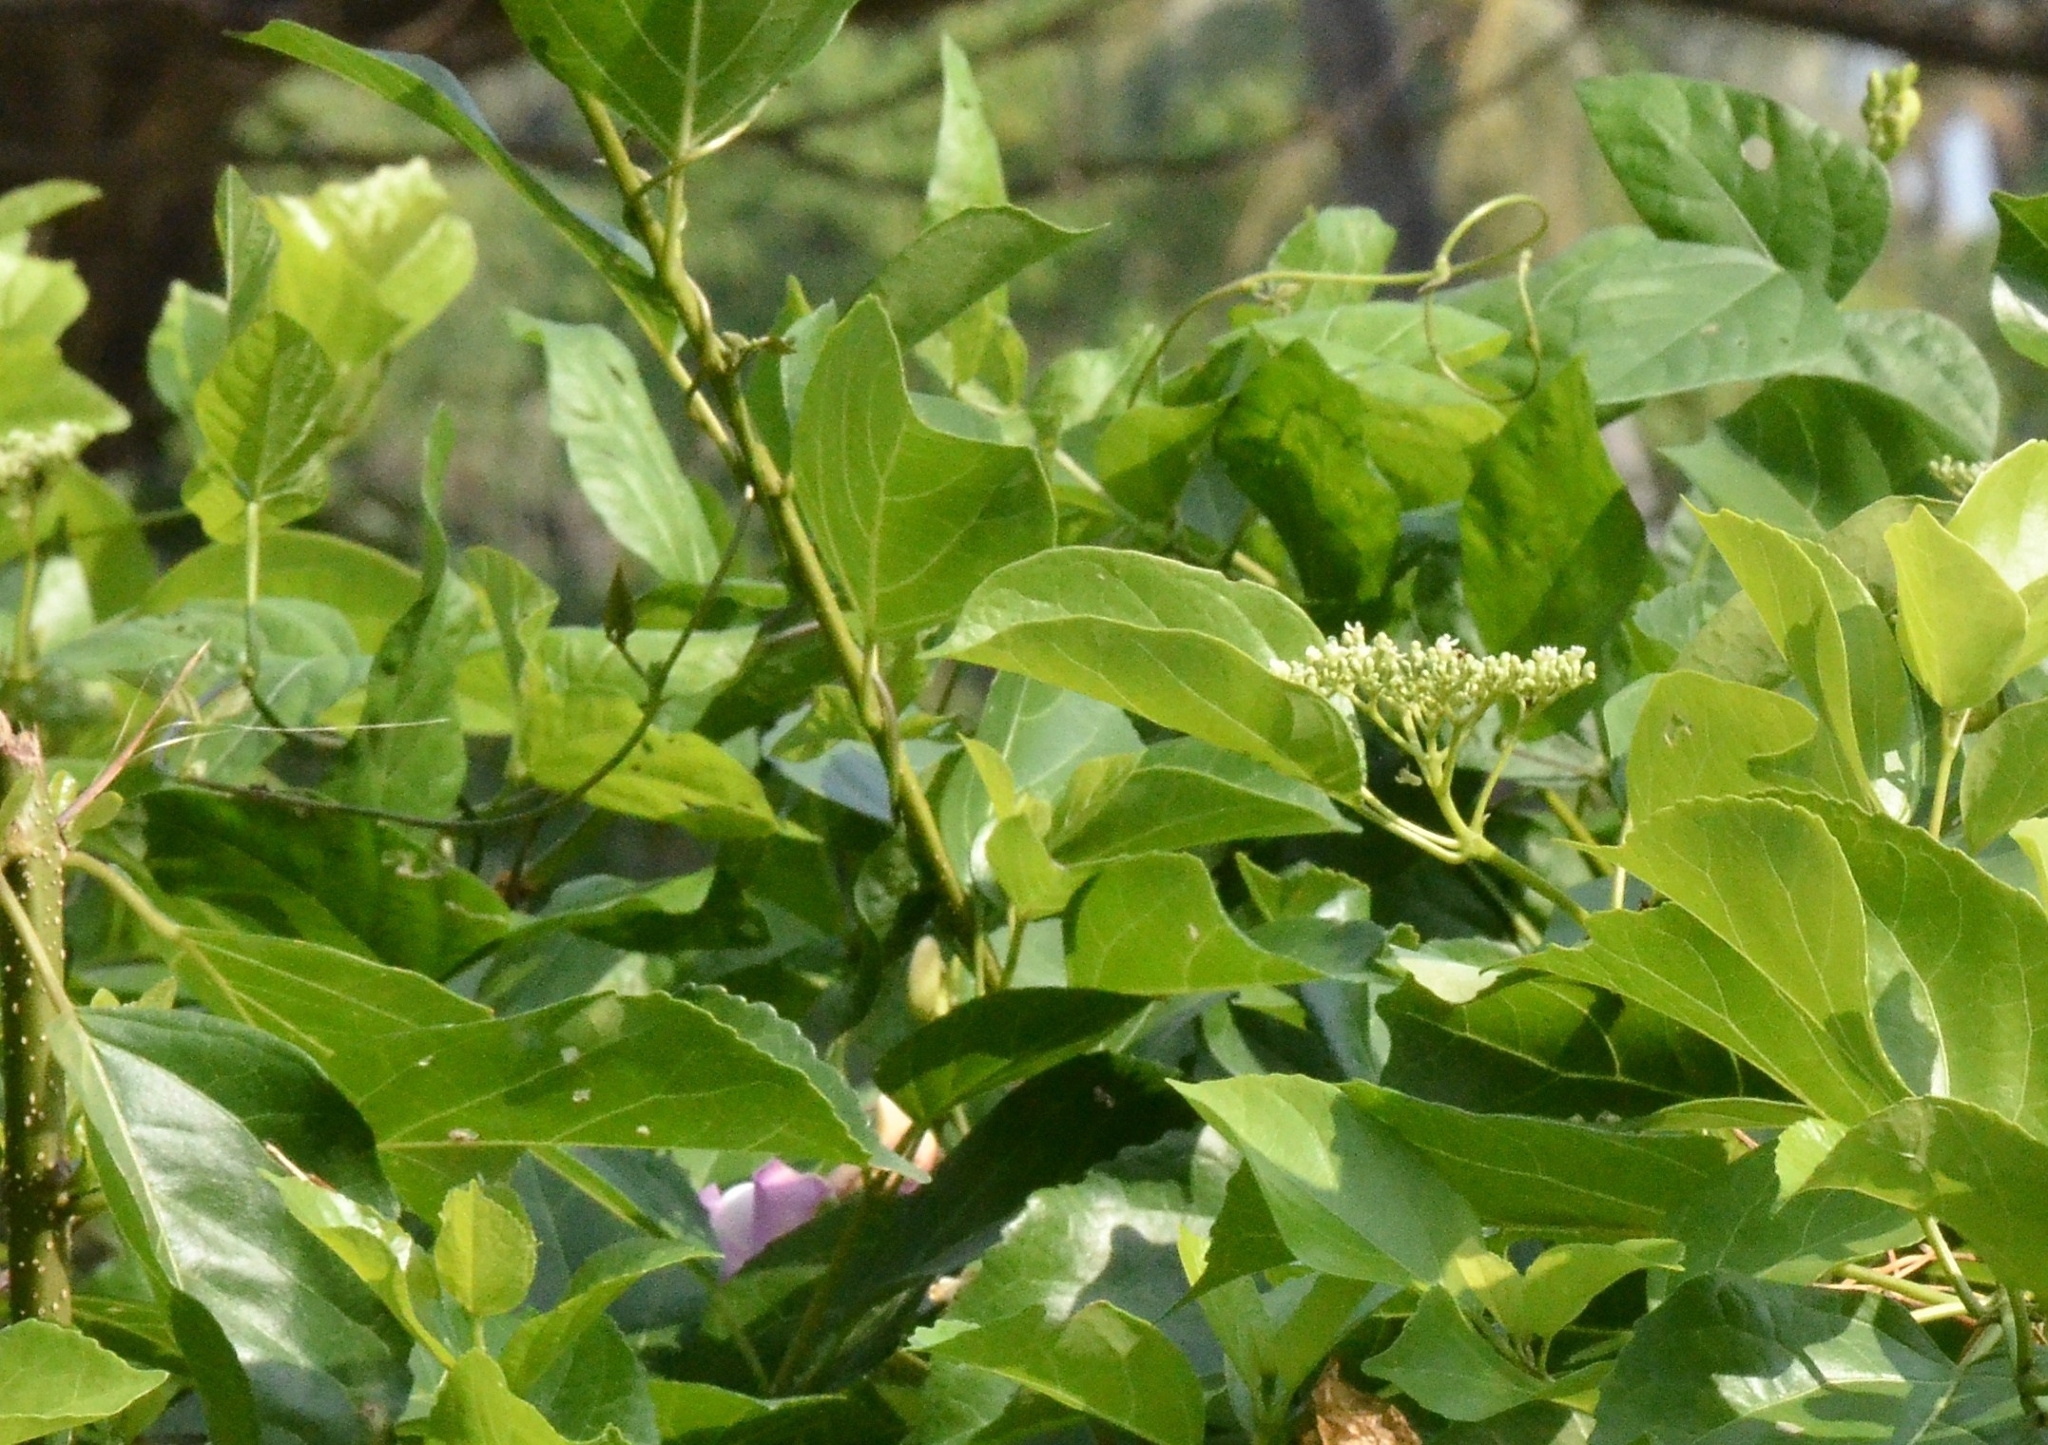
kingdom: Plantae
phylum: Tracheophyta
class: Magnoliopsida
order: Lamiales
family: Lamiaceae
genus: Premna
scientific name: Premna serratifolia
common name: Bastard guelder
